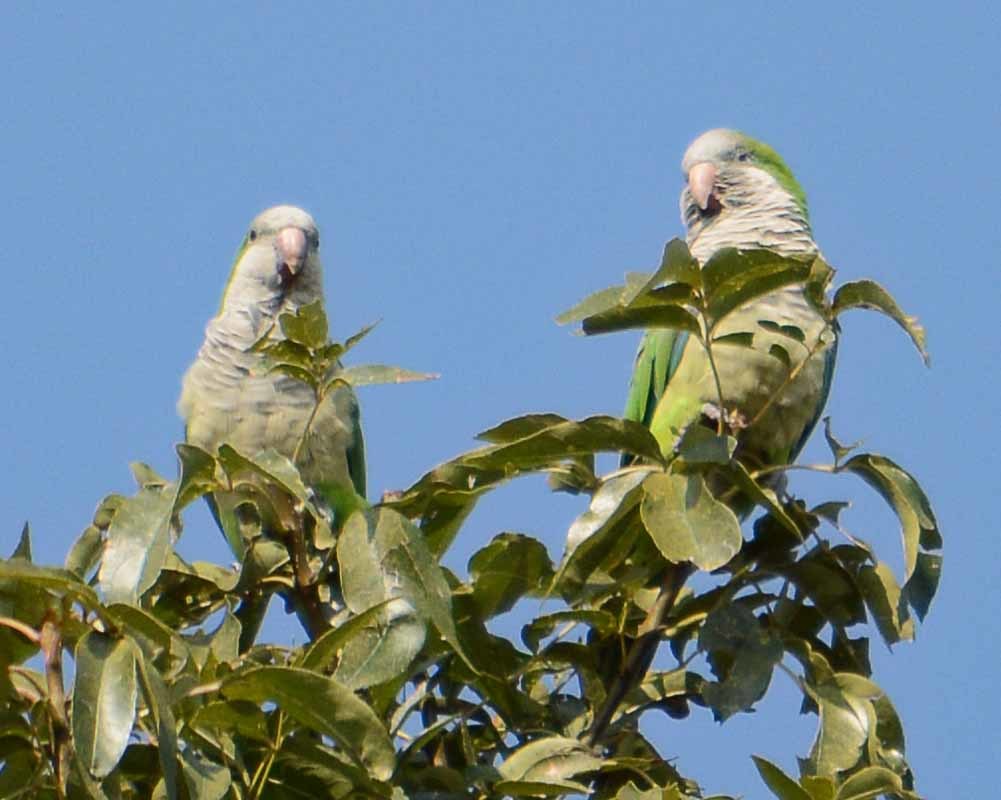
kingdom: Animalia
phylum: Chordata
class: Aves
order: Psittaciformes
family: Psittacidae
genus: Myiopsitta
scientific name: Myiopsitta monachus
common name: Monk parakeet
